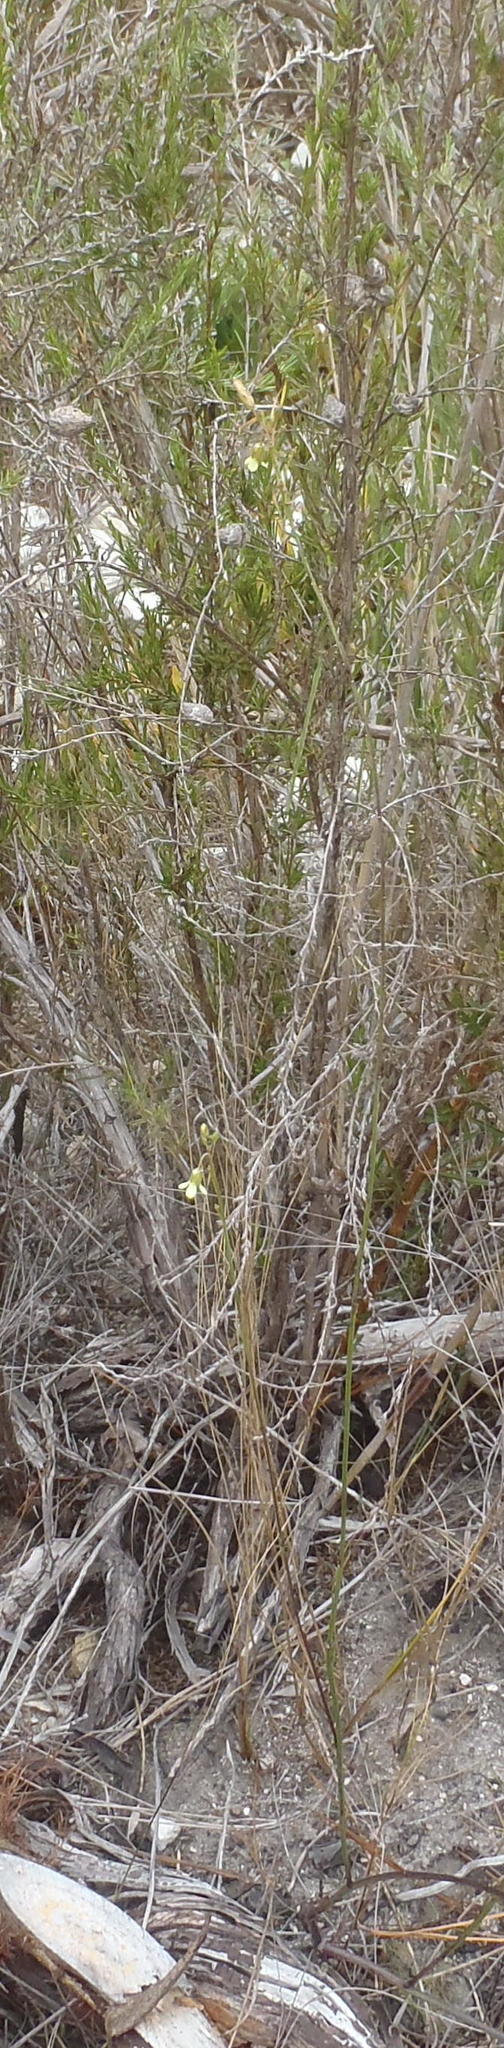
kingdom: Plantae
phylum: Tracheophyta
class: Magnoliopsida
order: Brassicales
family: Brassicaceae
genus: Heliophila
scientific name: Heliophila elongata
